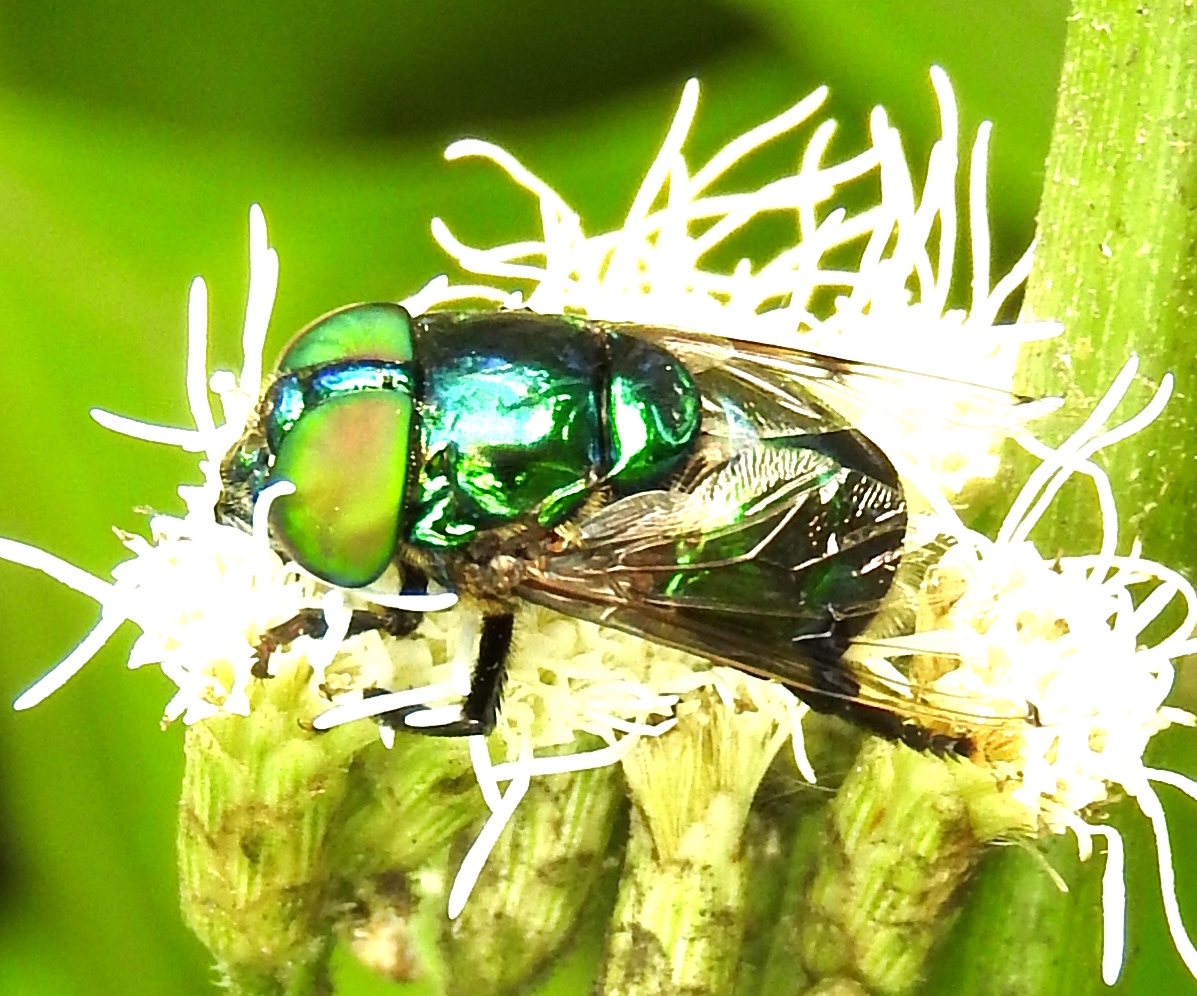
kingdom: Animalia
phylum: Arthropoda
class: Insecta
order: Diptera
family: Syrphidae
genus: Ornidia
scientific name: Ornidia
